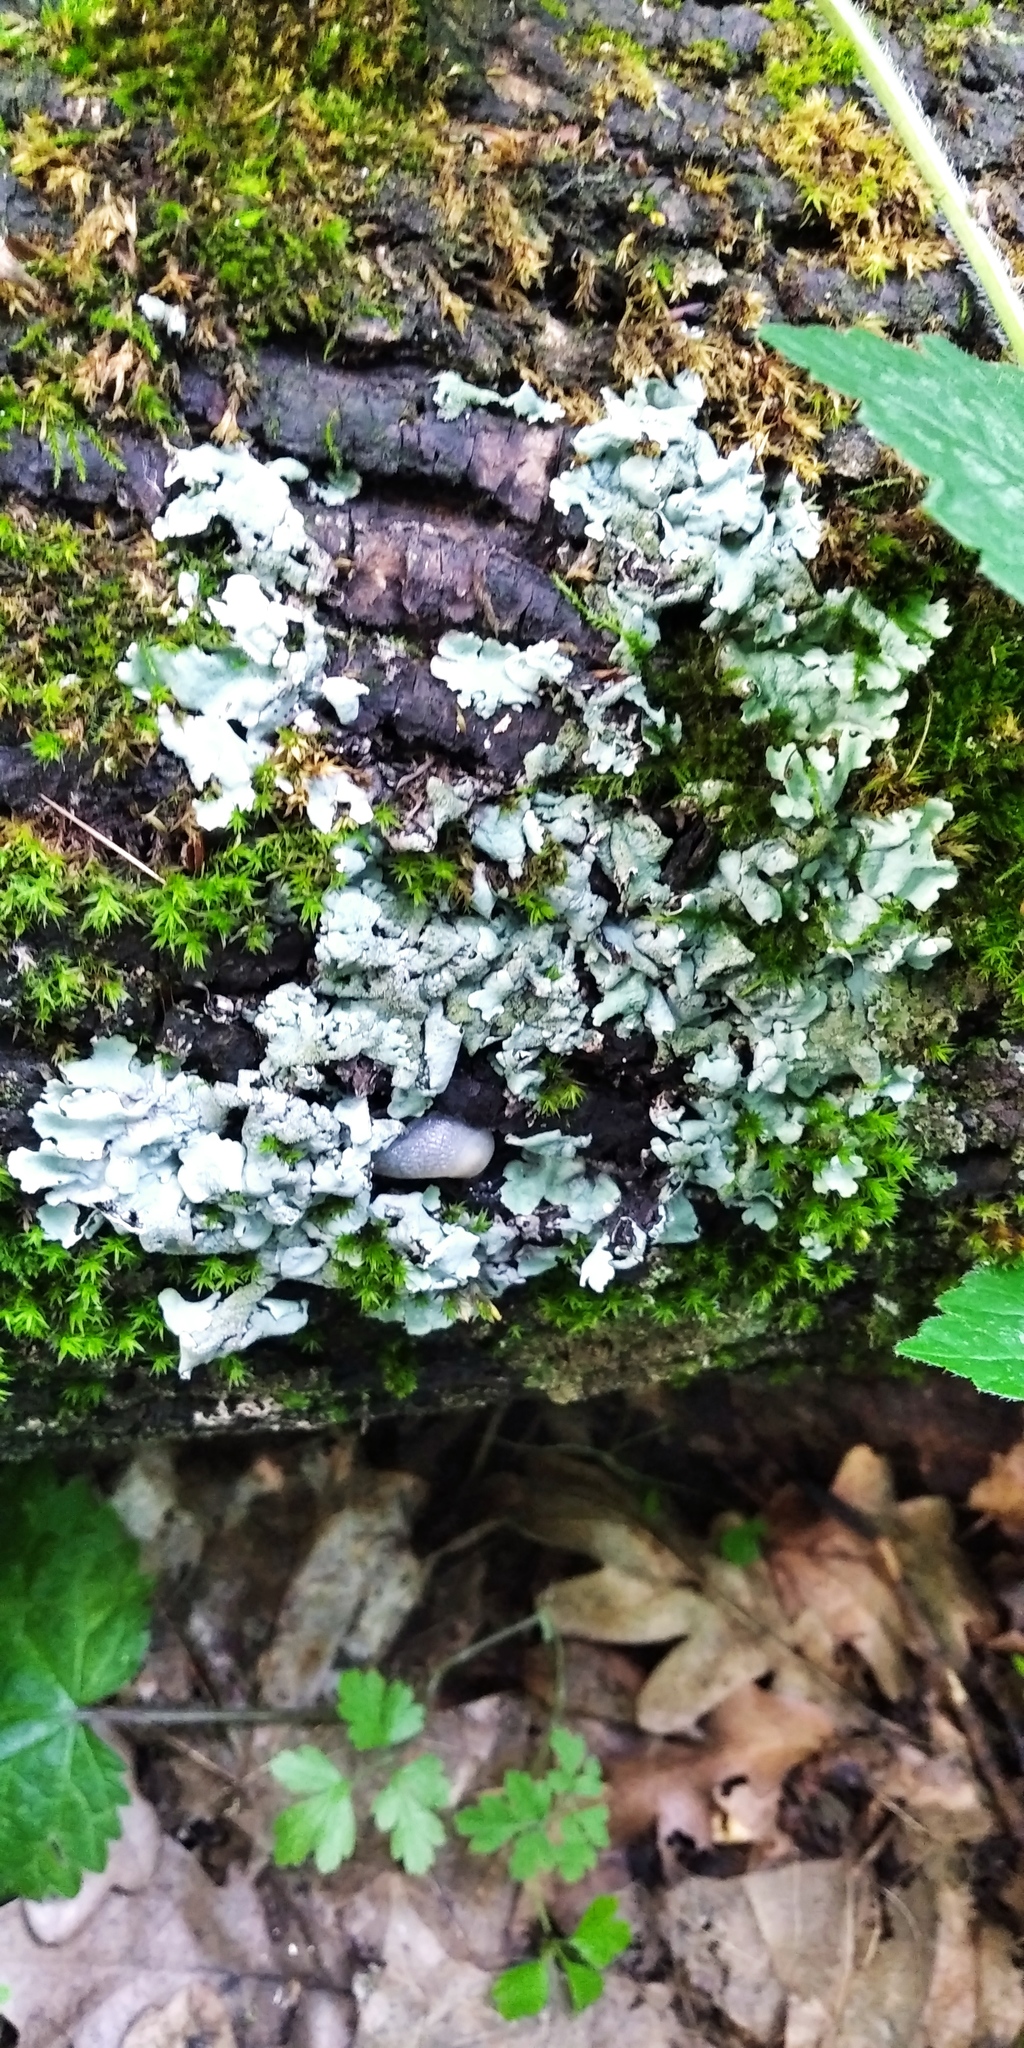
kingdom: Fungi
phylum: Ascomycota
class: Lecanoromycetes
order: Lecanorales
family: Parmeliaceae
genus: Flavoparmelia
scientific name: Flavoparmelia caperata
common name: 40-mile per hour lichen
